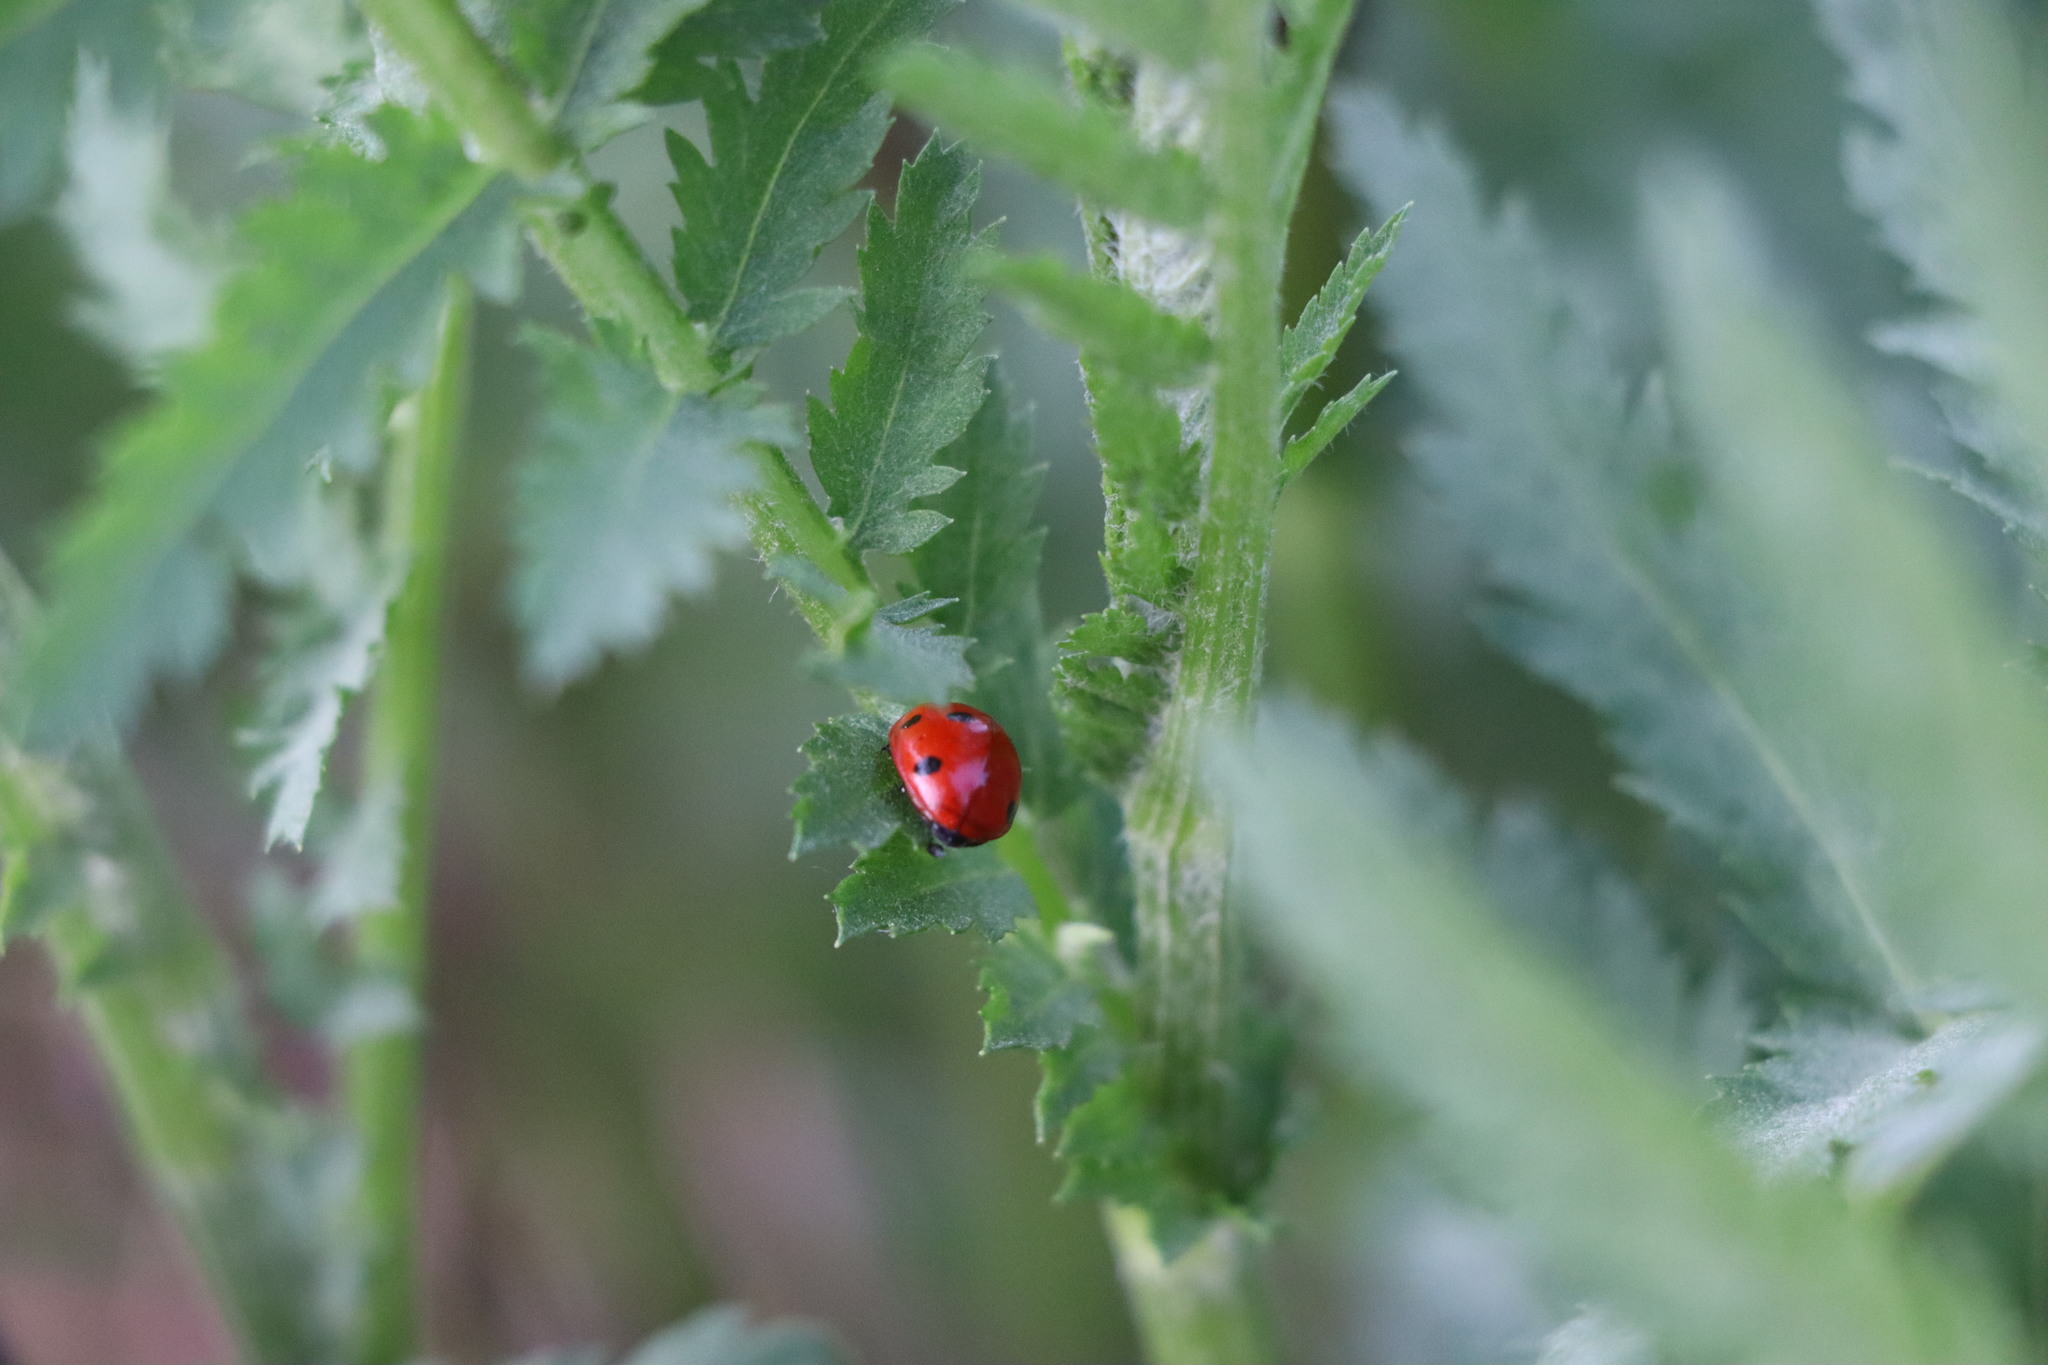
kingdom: Animalia
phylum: Arthropoda
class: Insecta
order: Coleoptera
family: Coccinellidae
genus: Coccinella
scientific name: Coccinella septempunctata
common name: Sevenspotted lady beetle
